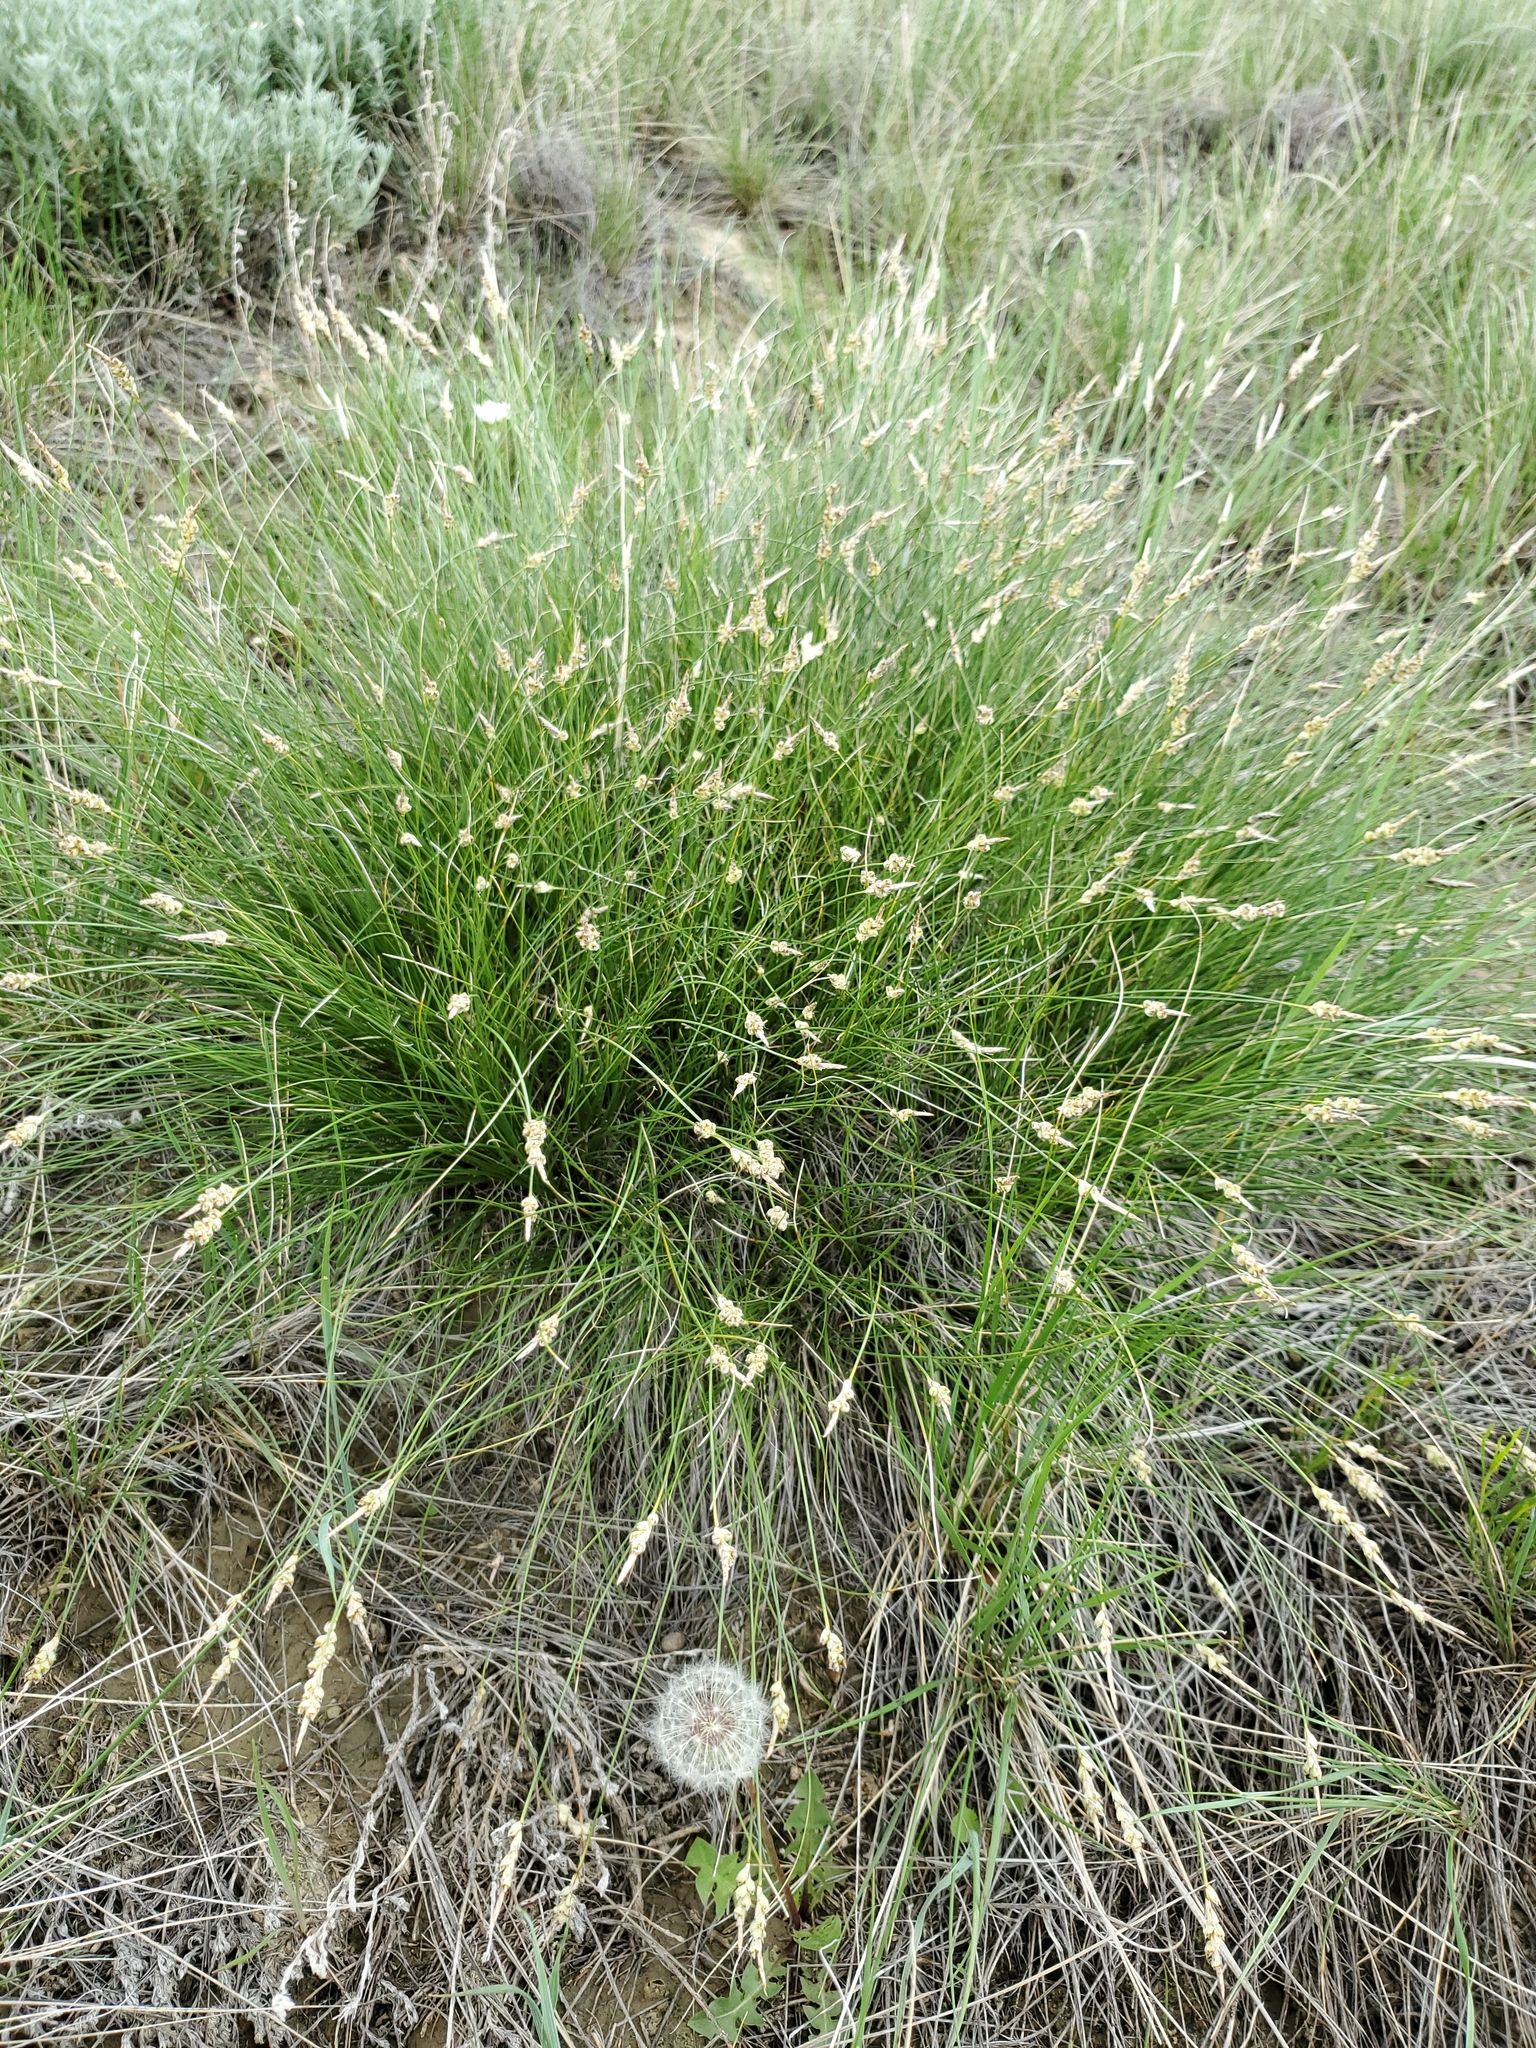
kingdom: Plantae
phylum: Tracheophyta
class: Liliopsida
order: Poales
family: Cyperaceae
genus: Carex
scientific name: Carex filifolia
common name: Threadleaf sedge
